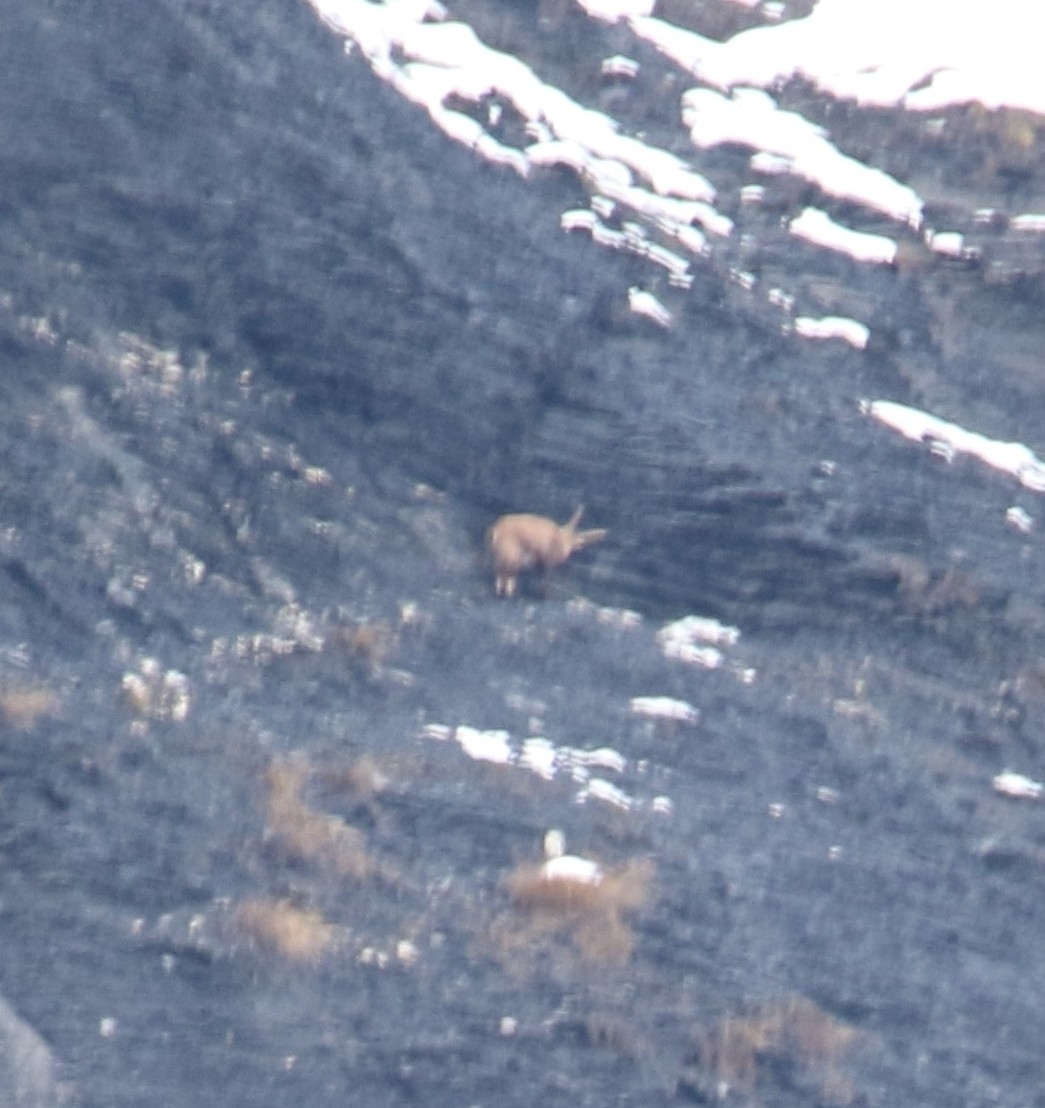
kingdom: Animalia
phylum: Chordata
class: Mammalia
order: Artiodactyla
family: Bovidae
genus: Capra
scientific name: Capra ibex
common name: Alpine ibex
